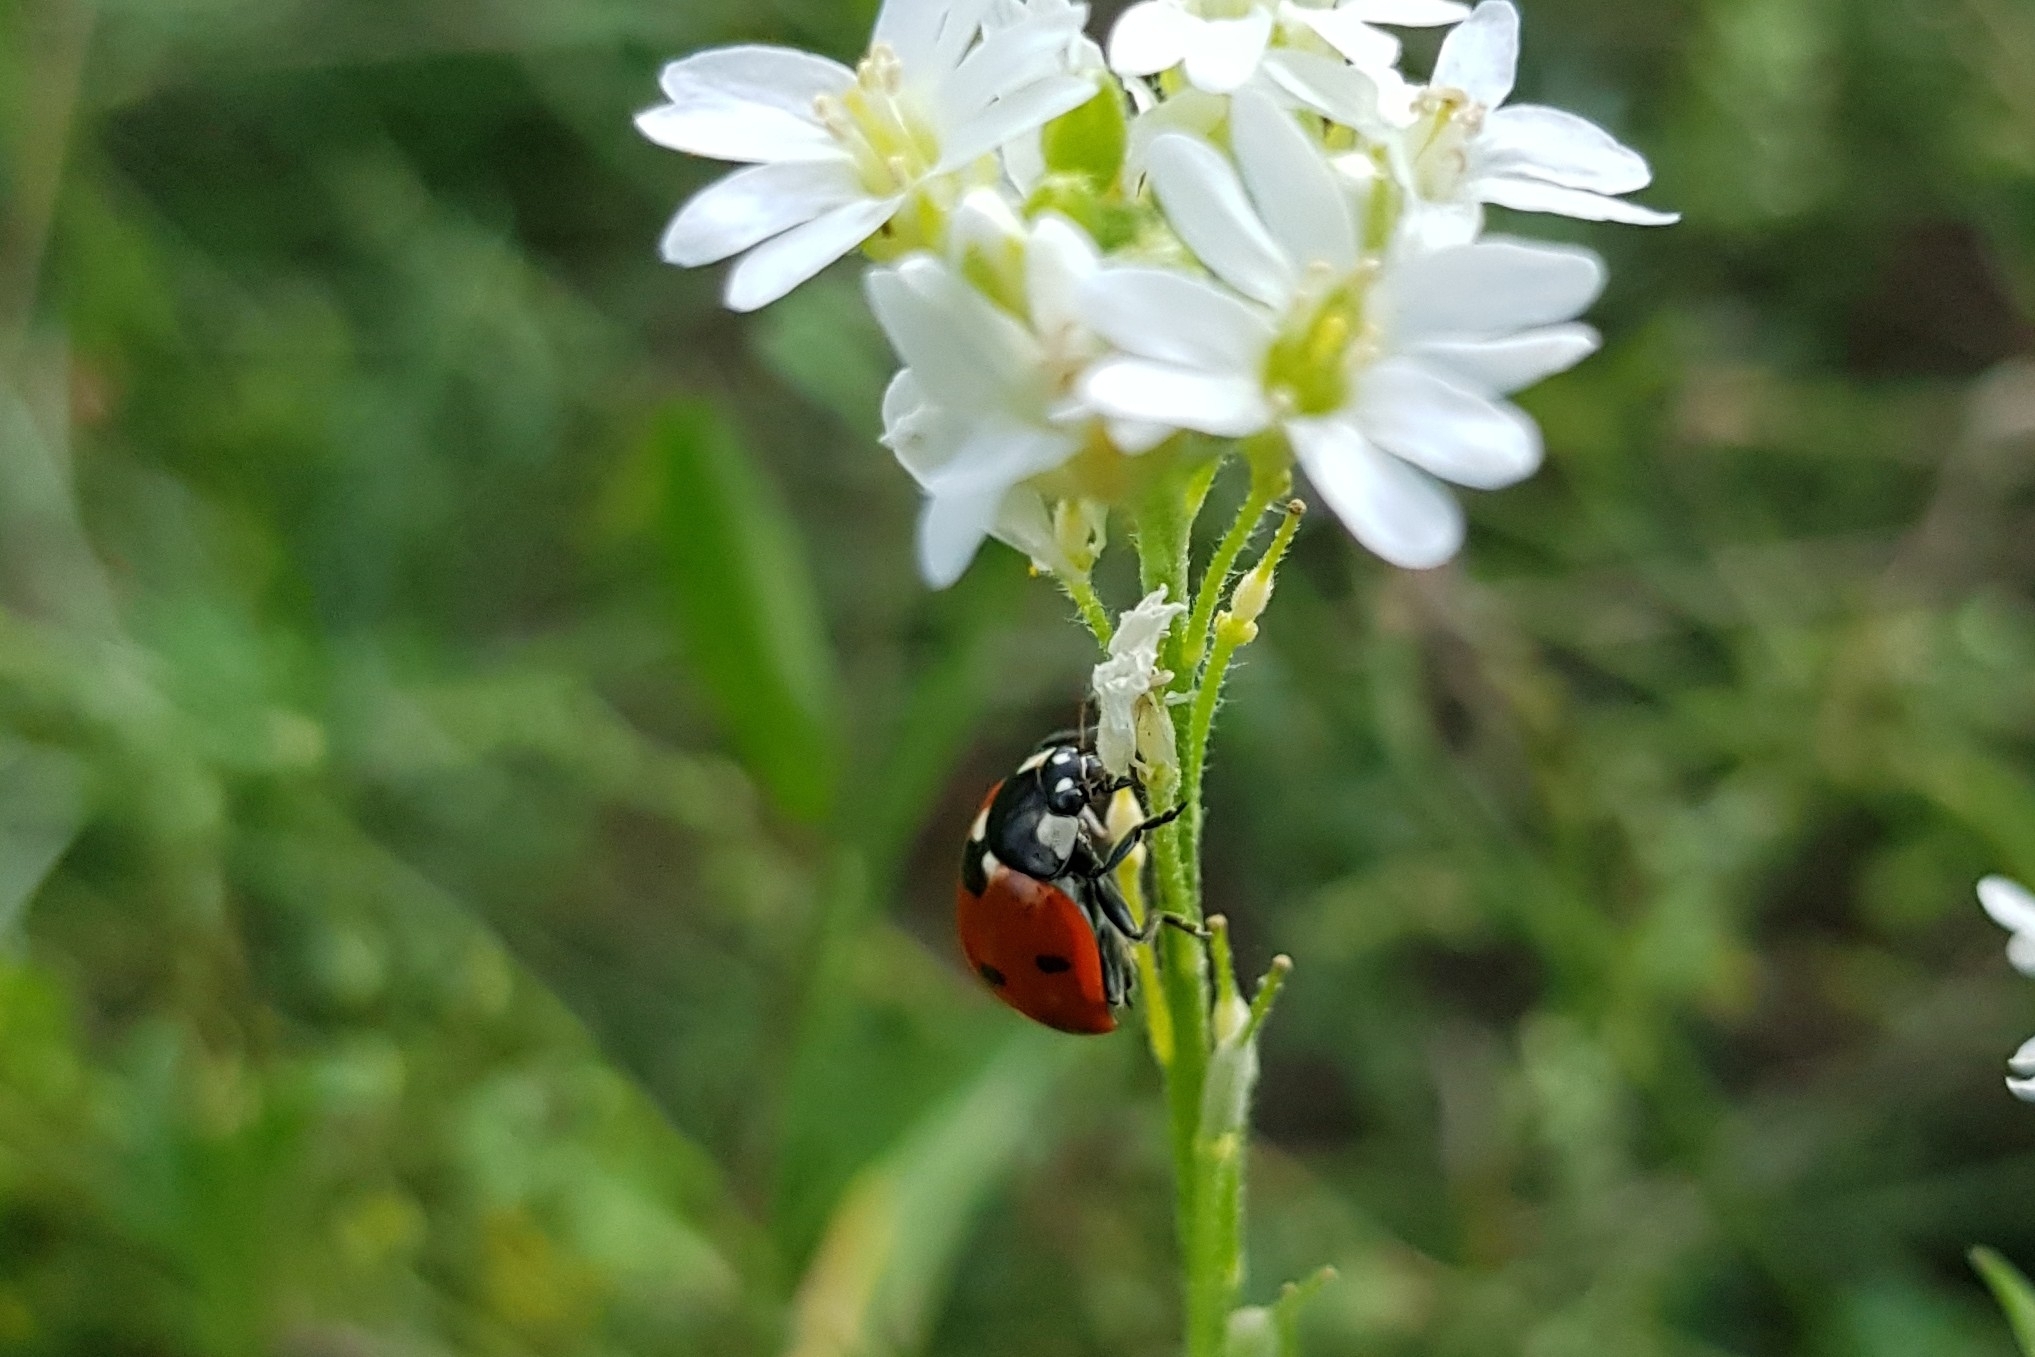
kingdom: Animalia
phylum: Arthropoda
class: Insecta
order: Coleoptera
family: Coccinellidae
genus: Coccinella
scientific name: Coccinella septempunctata
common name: Sevenspotted lady beetle
